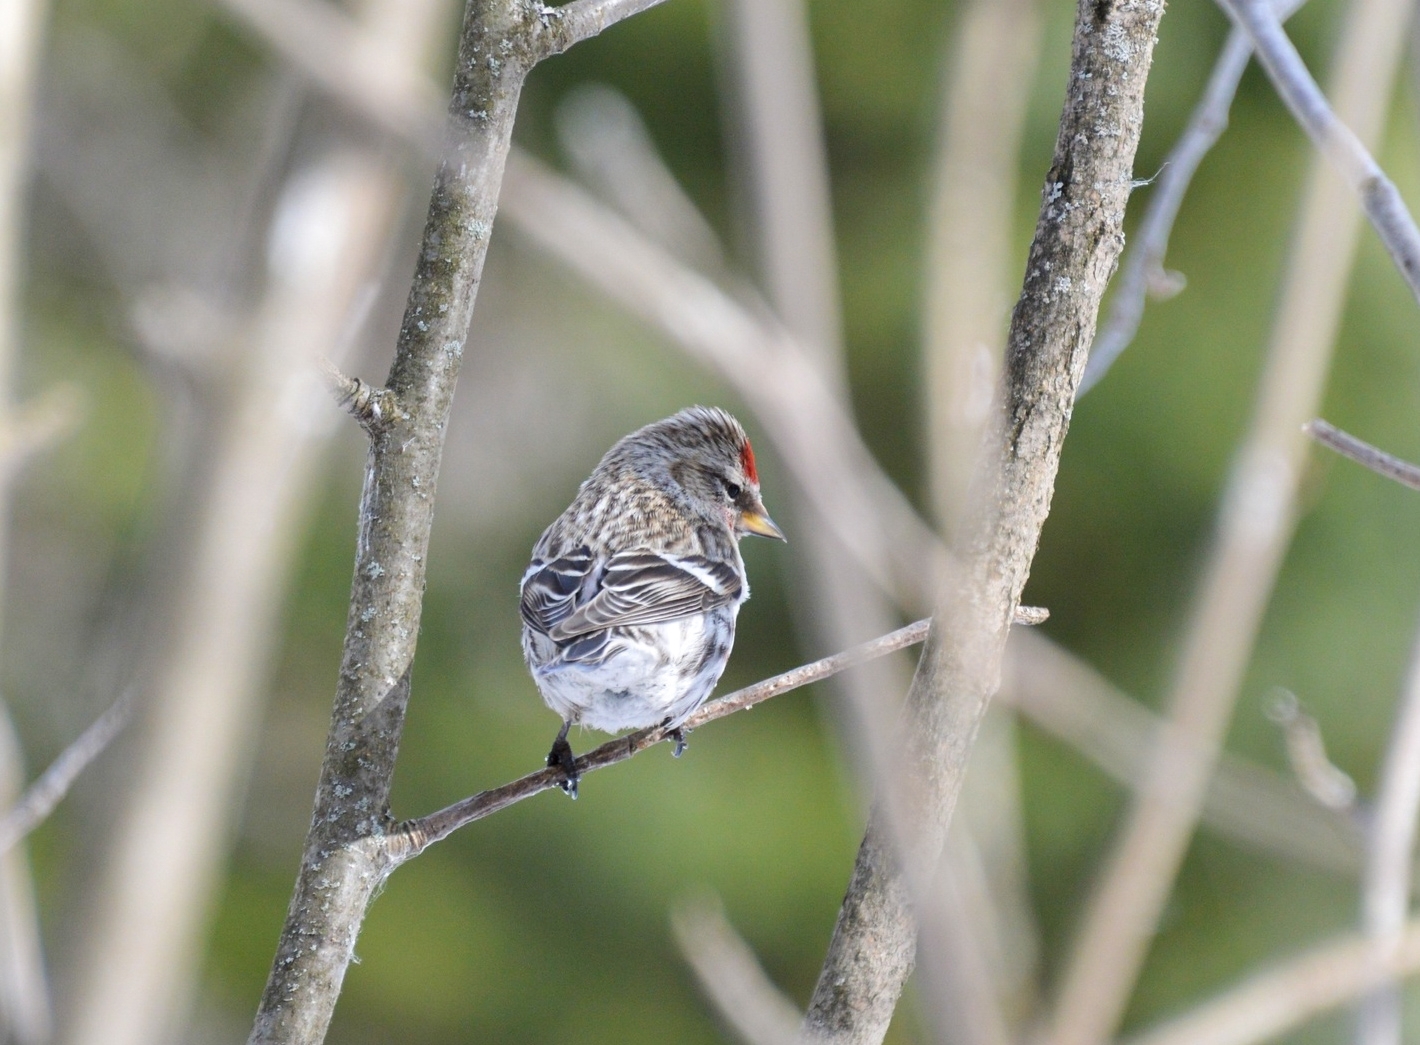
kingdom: Animalia
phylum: Chordata
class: Aves
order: Passeriformes
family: Fringillidae
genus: Acanthis
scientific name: Acanthis flammea
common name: Common redpoll
